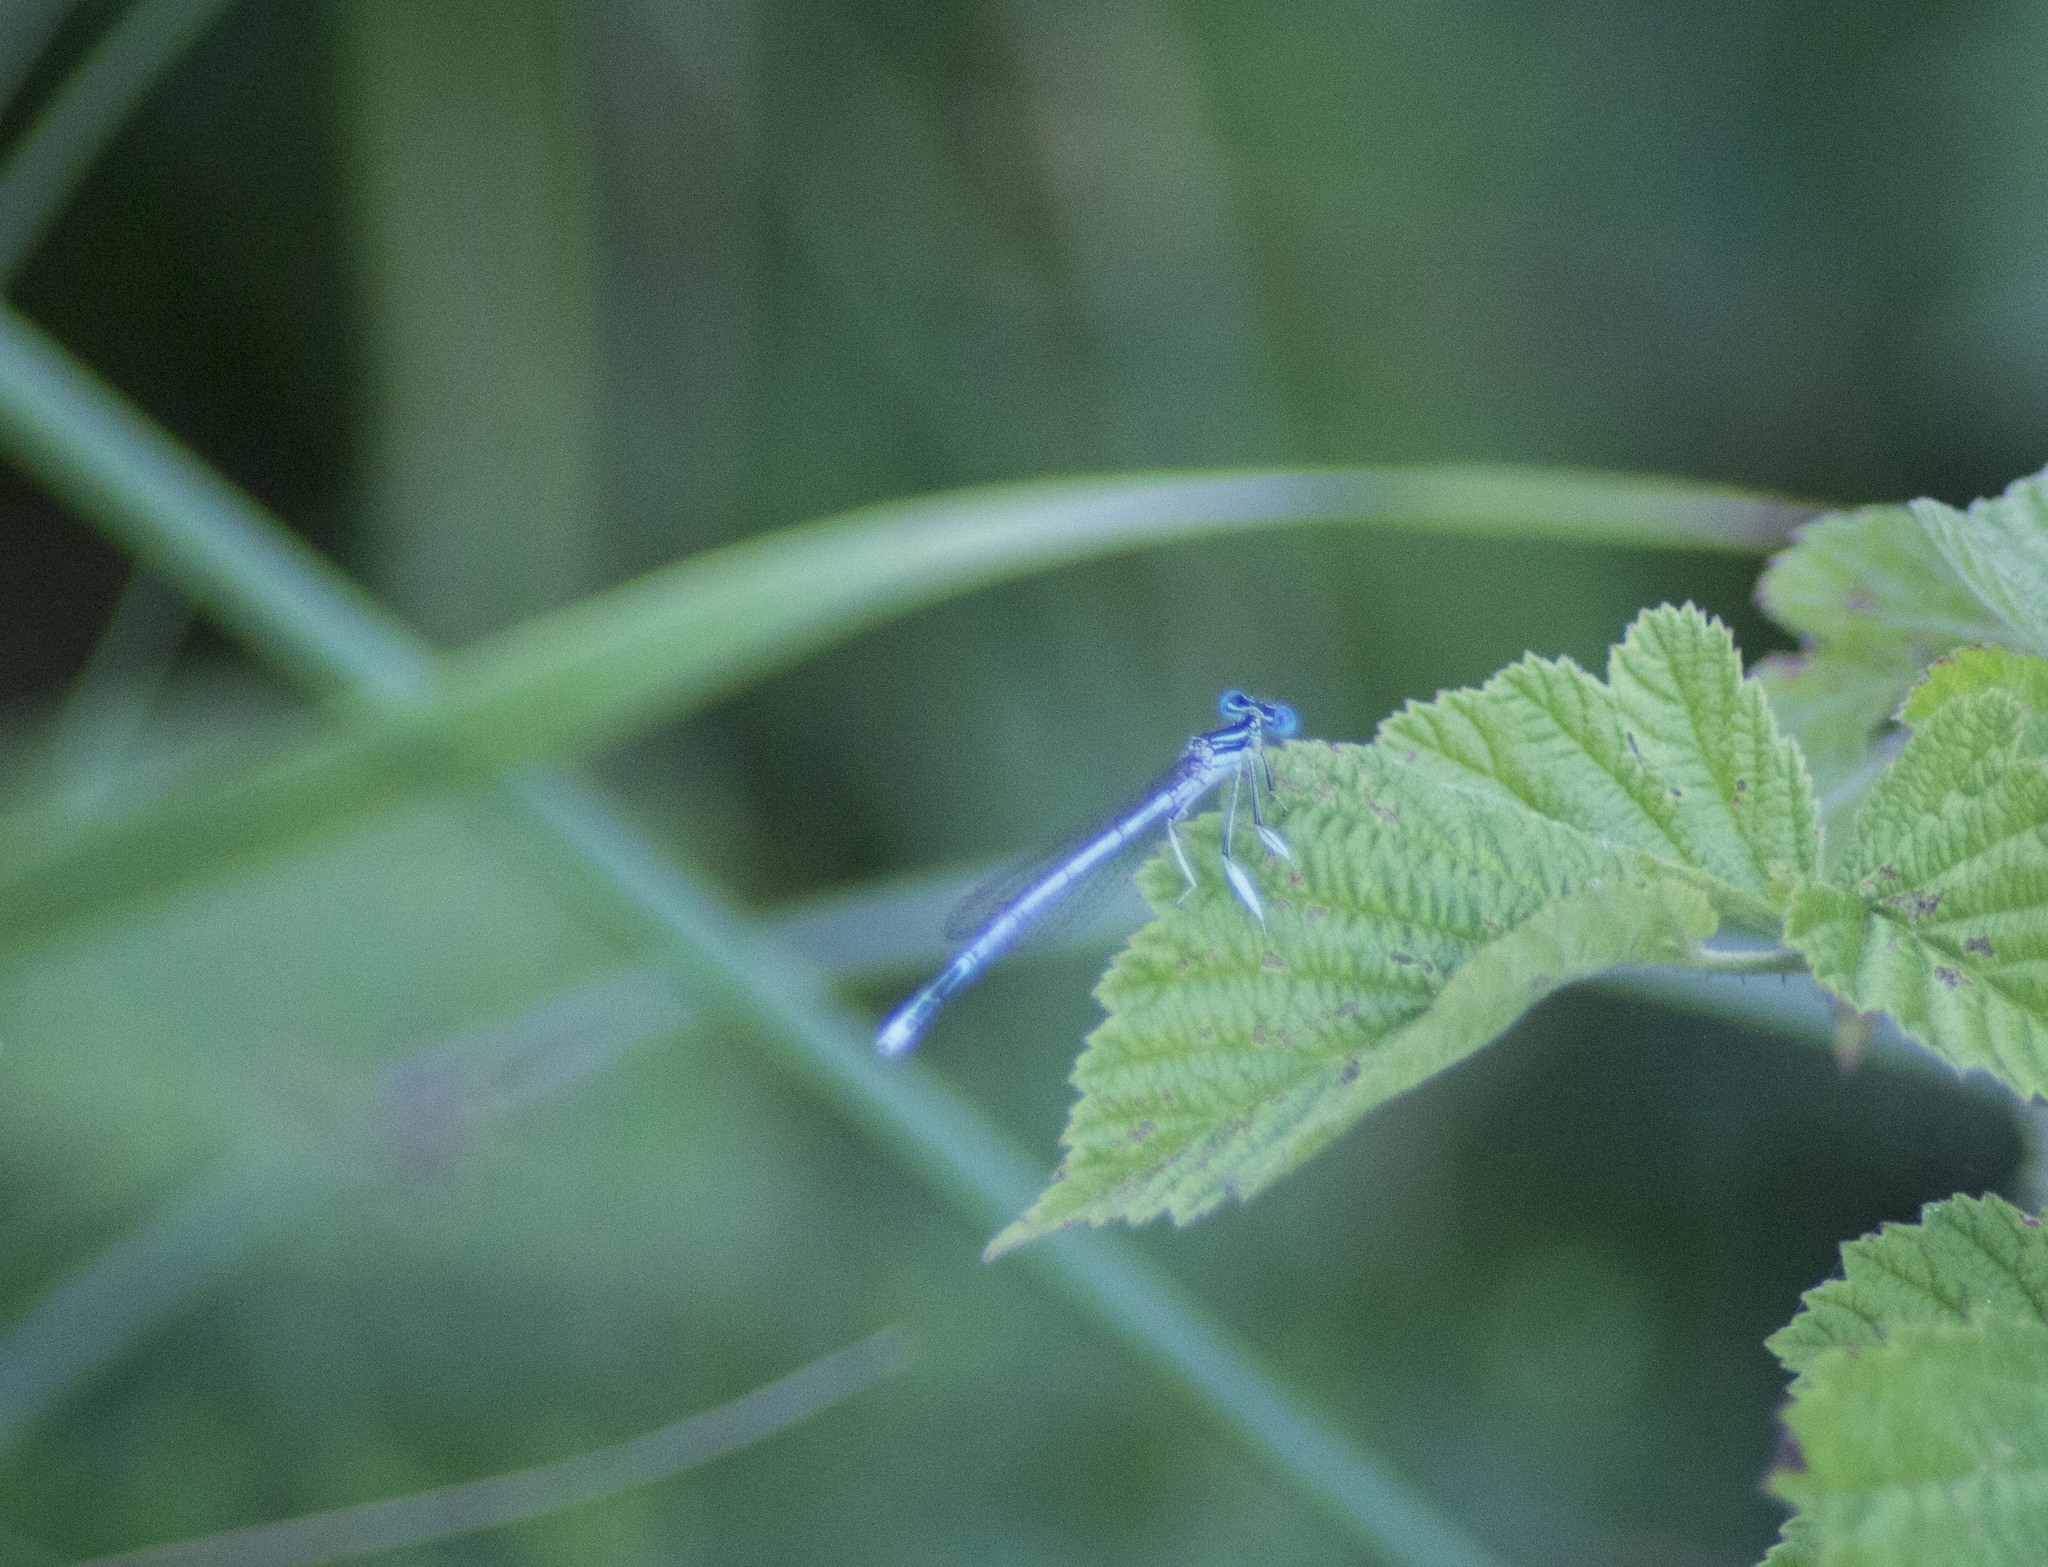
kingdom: Animalia
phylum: Arthropoda
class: Insecta
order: Odonata
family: Platycnemididae
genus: Platycnemis
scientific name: Platycnemis pennipes
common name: White-legged damselfly
